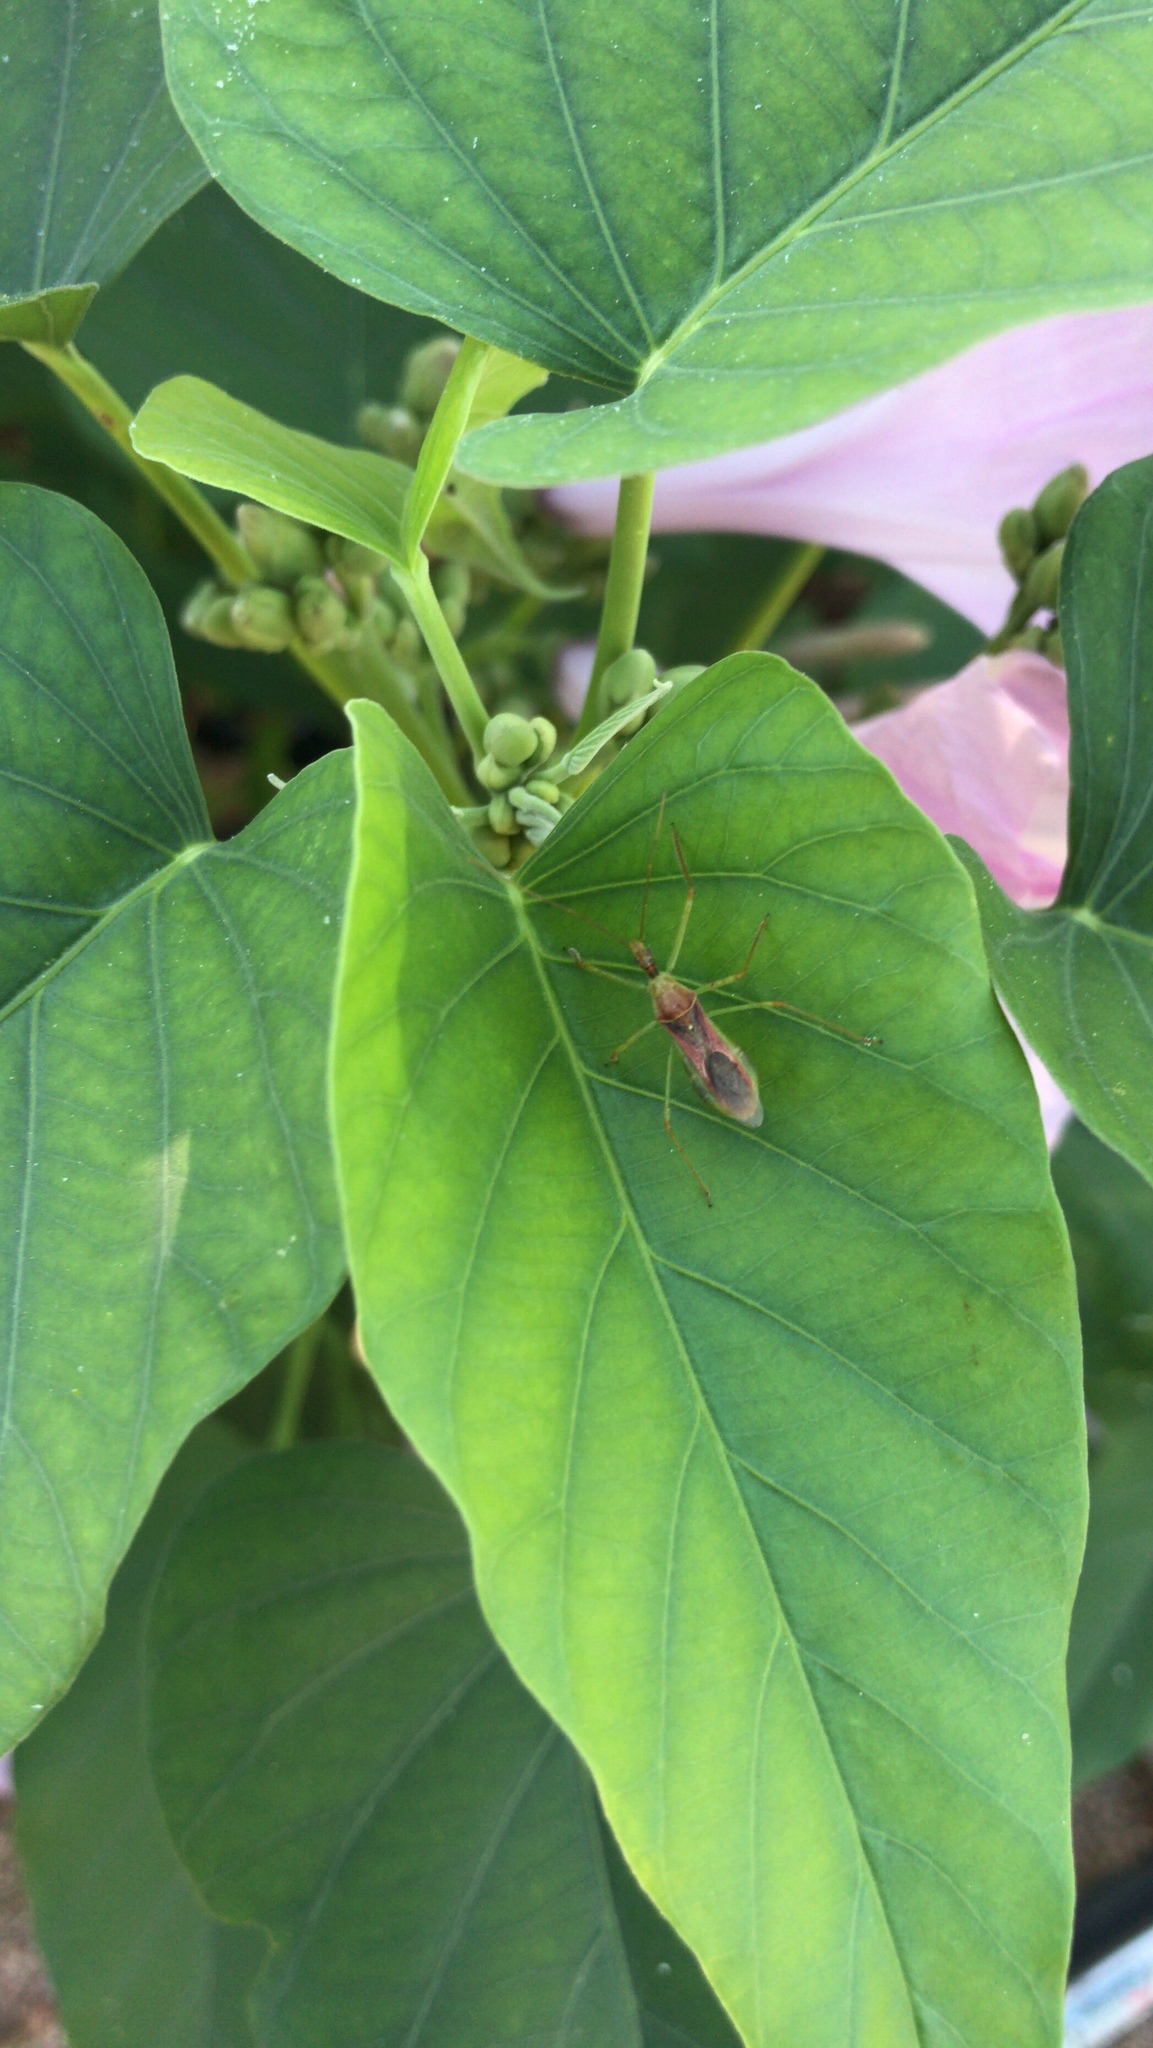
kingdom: Animalia
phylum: Arthropoda
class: Insecta
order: Hemiptera
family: Reduviidae
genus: Zelus
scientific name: Zelus renardii
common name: Assassin bug
